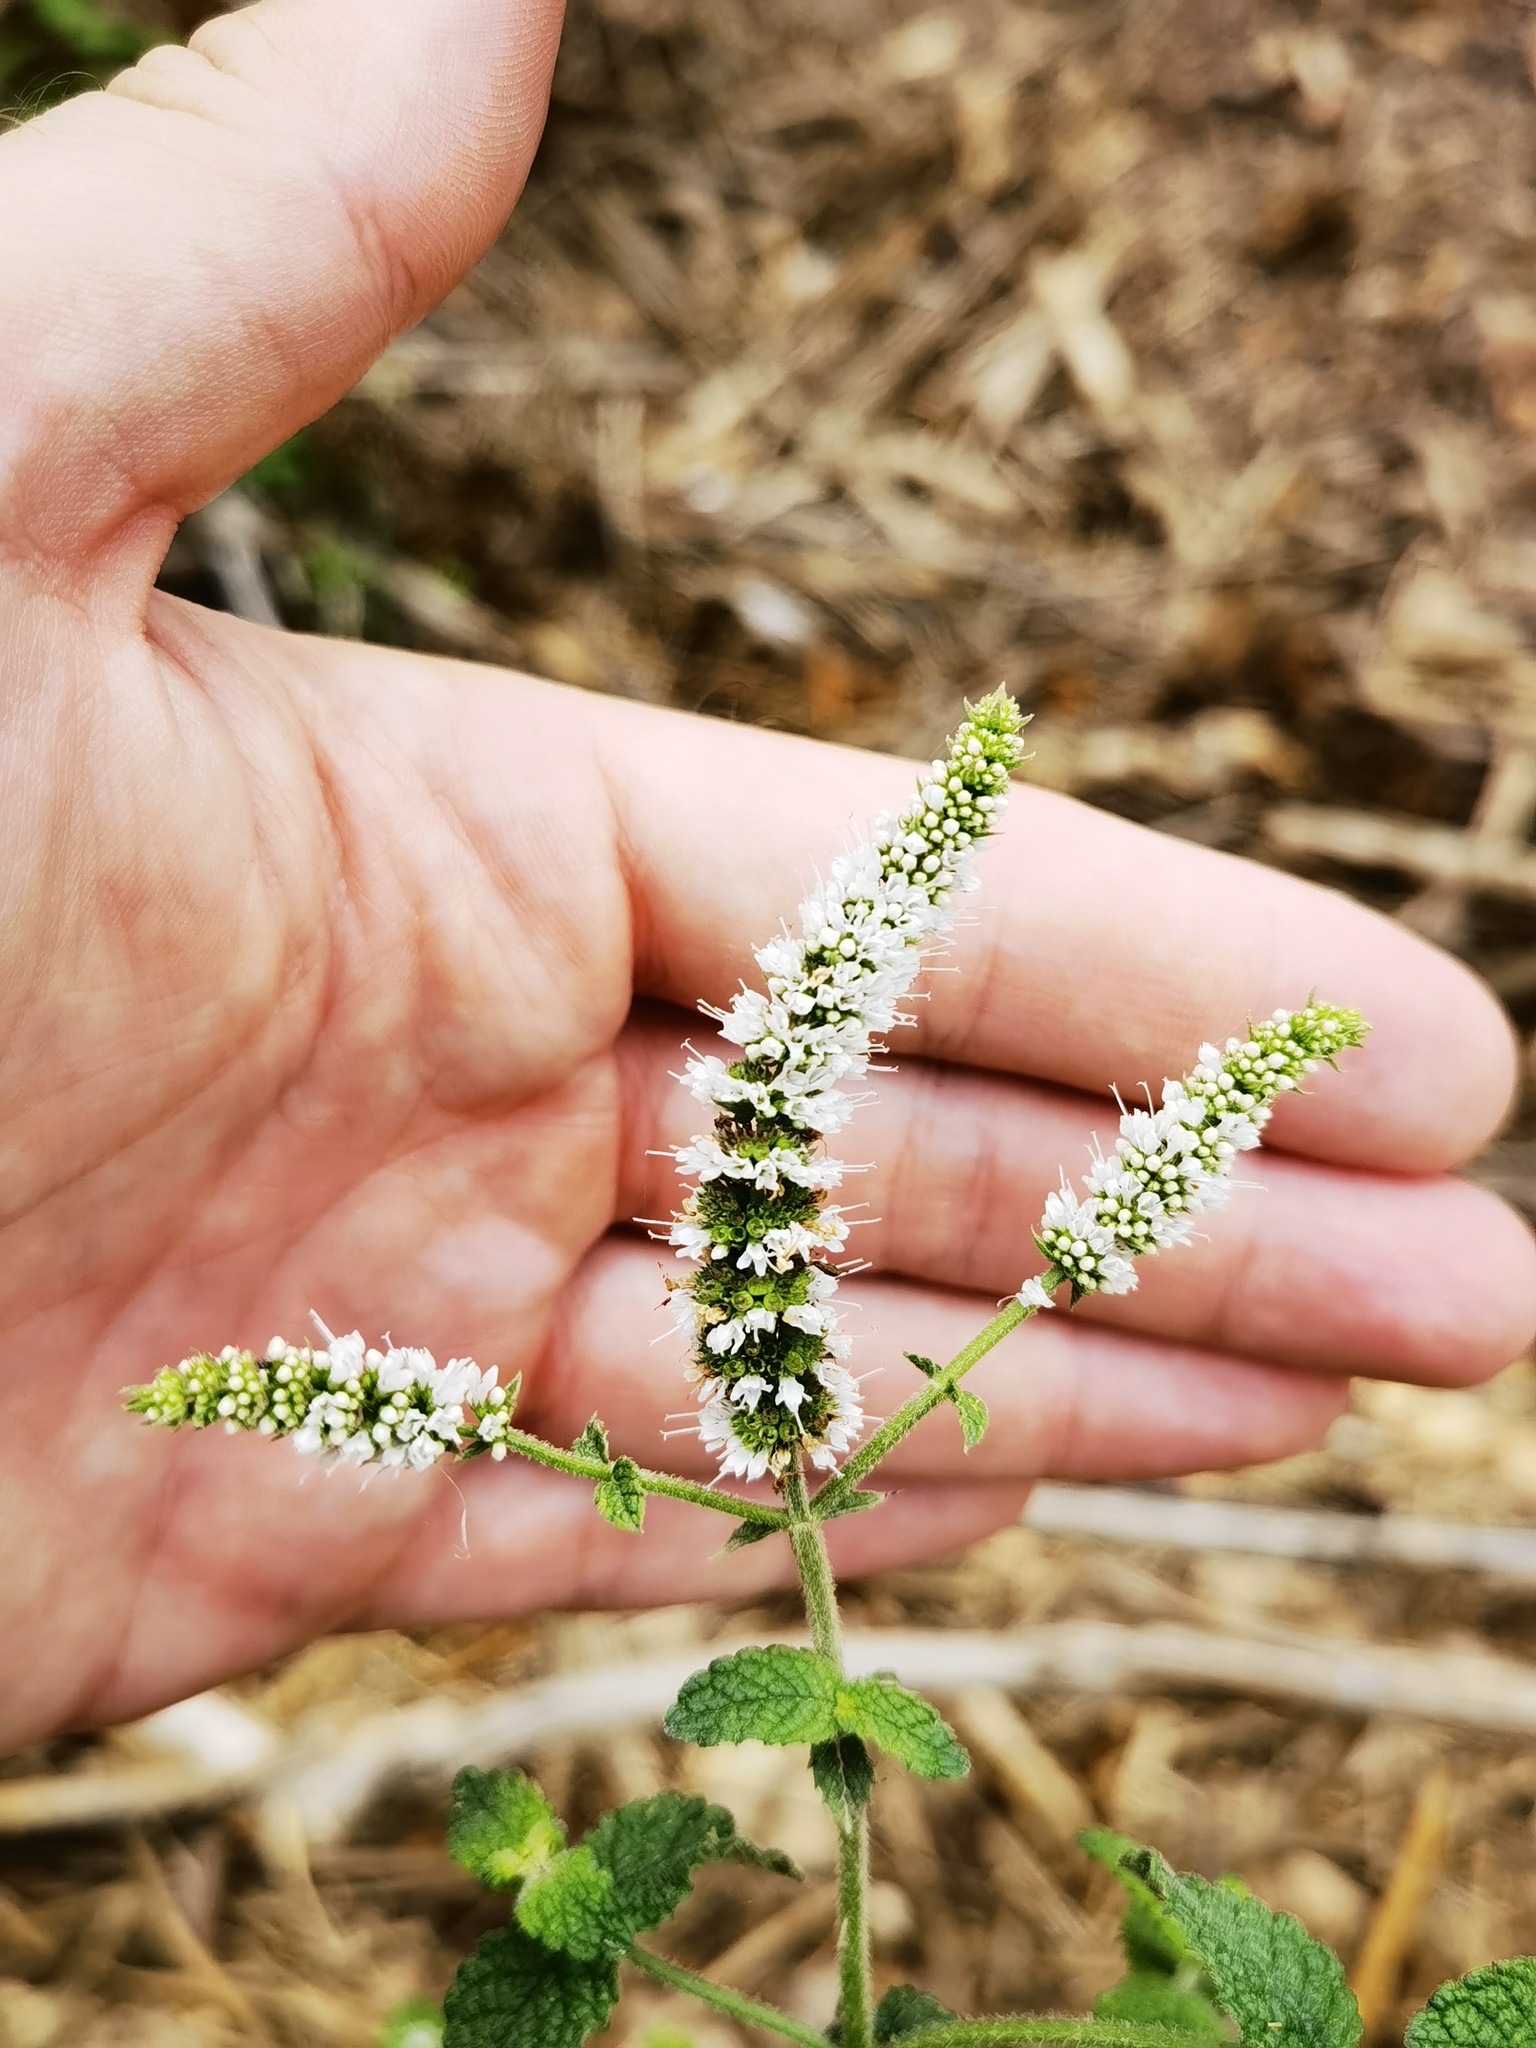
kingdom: Plantae
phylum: Tracheophyta
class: Magnoliopsida
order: Lamiales
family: Lamiaceae
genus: Mentha
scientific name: Mentha suaveolens
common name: Apple mint
